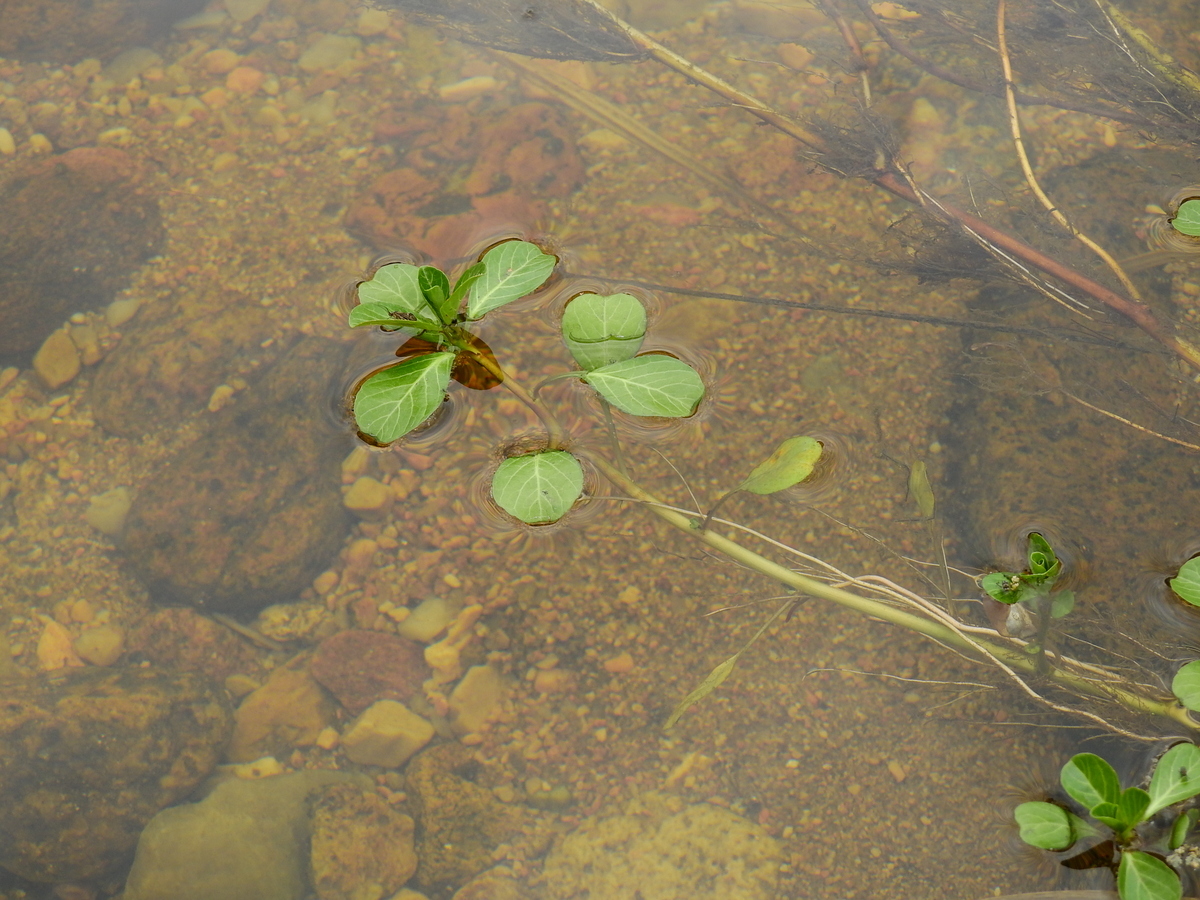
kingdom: Plantae
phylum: Tracheophyta
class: Magnoliopsida
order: Myrtales
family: Onagraceae
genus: Ludwigia
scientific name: Ludwigia peploides
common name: Floating primrose-willow
